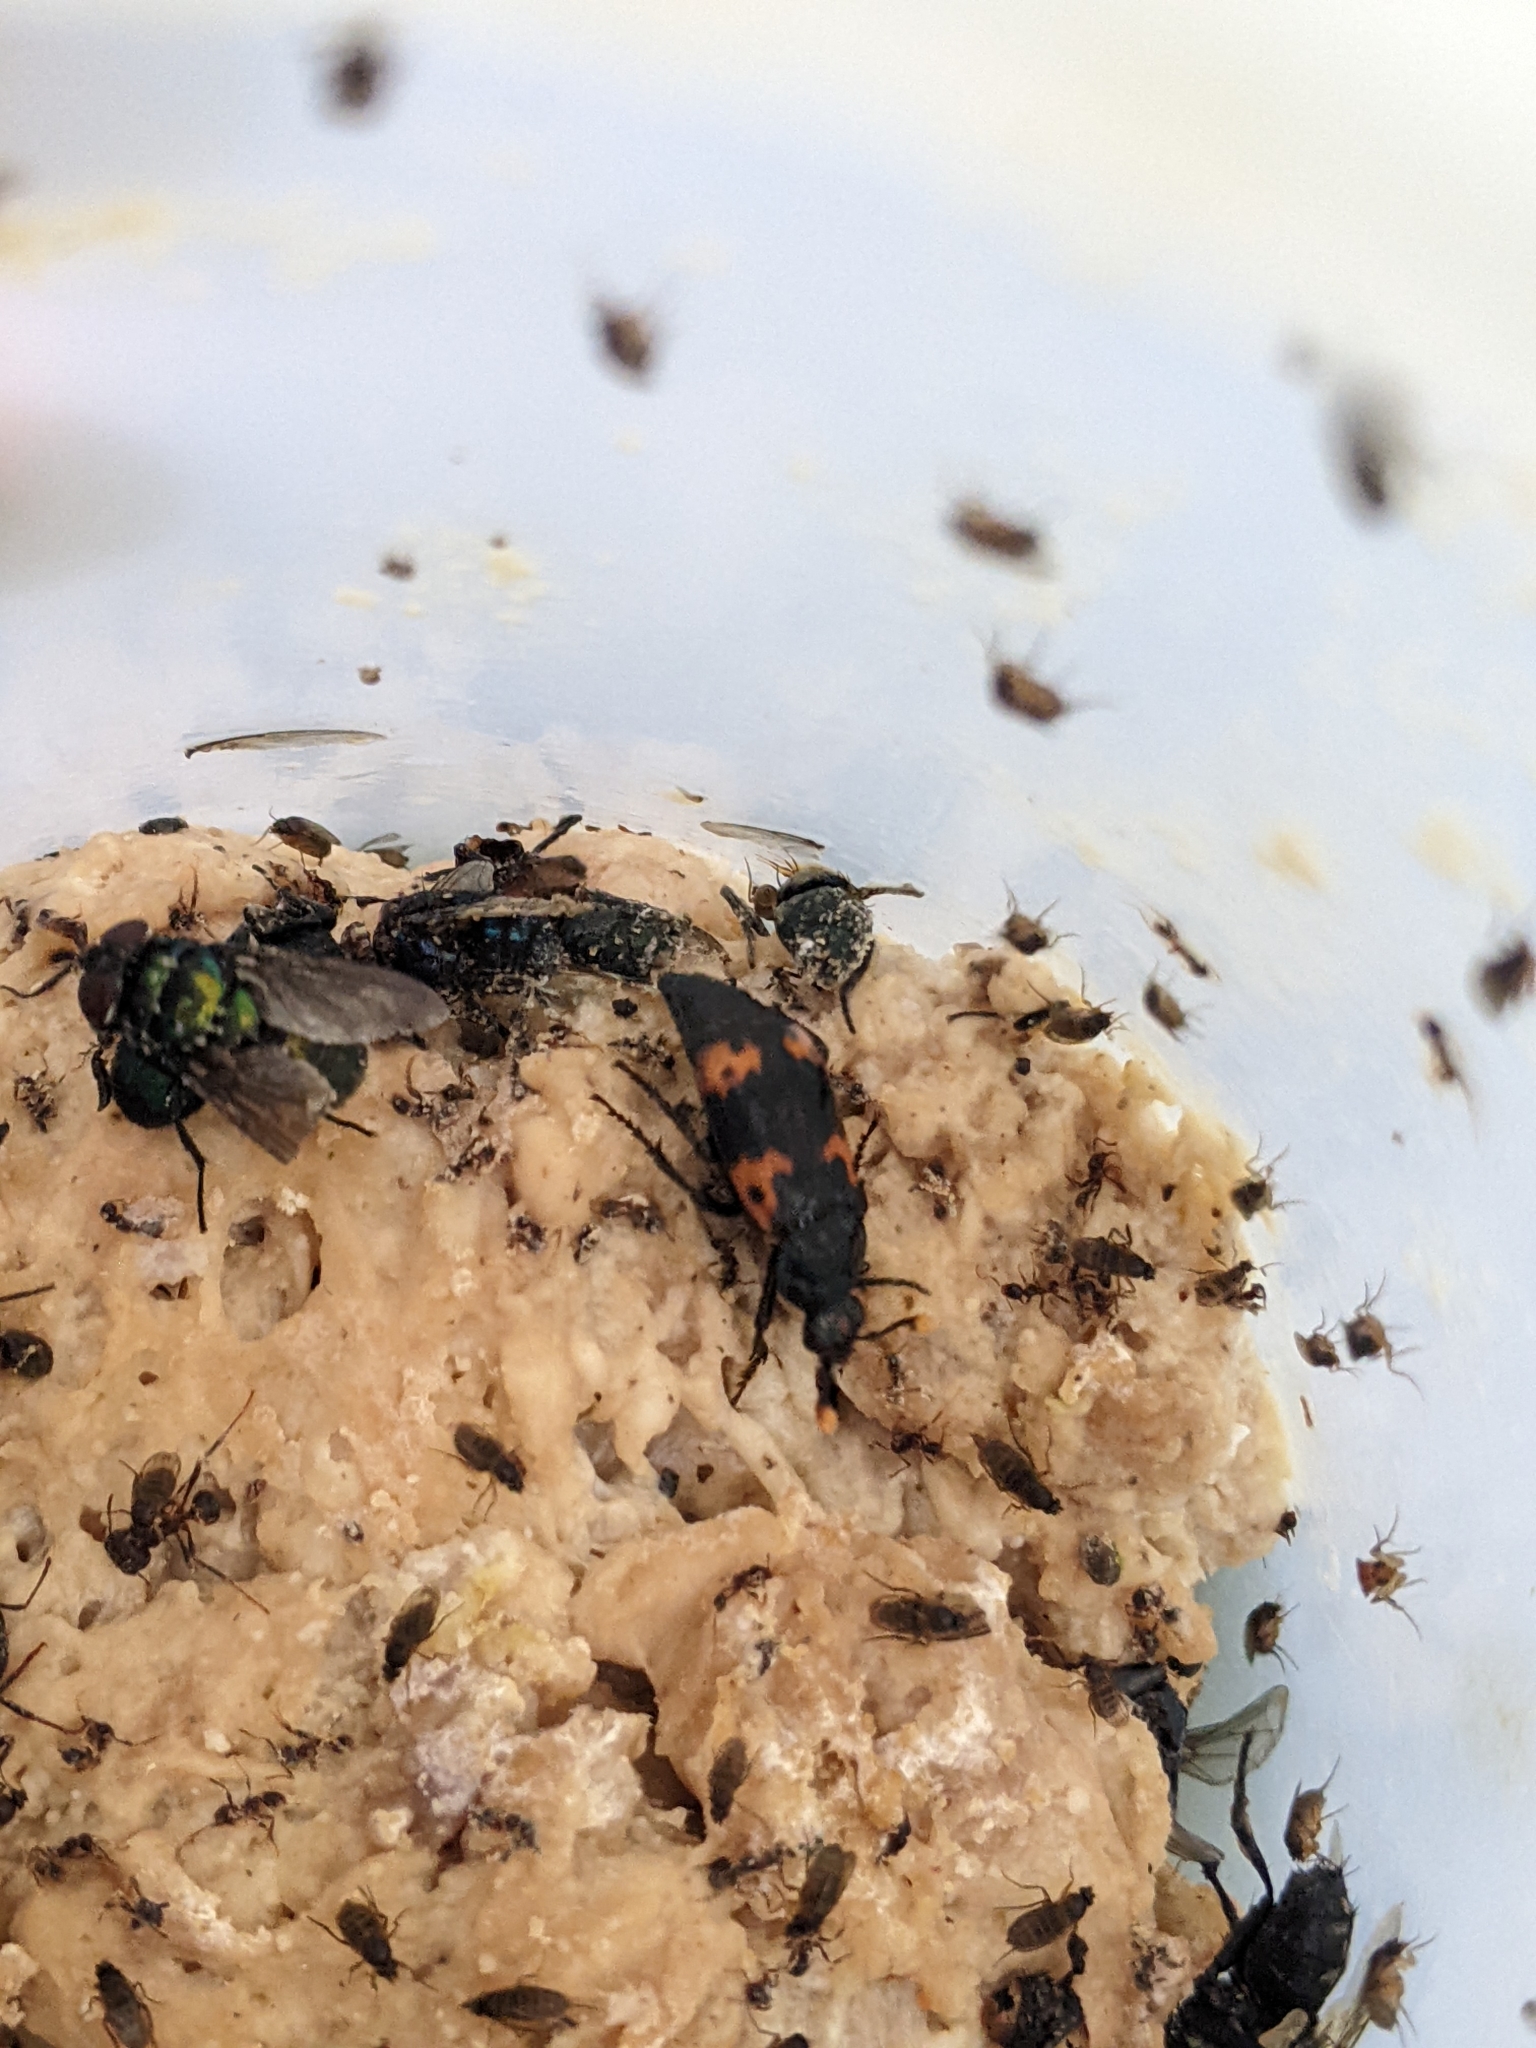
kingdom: Animalia
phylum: Arthropoda
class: Insecta
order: Coleoptera
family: Staphylinidae
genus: Nicrophorus
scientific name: Nicrophorus nepalensis
